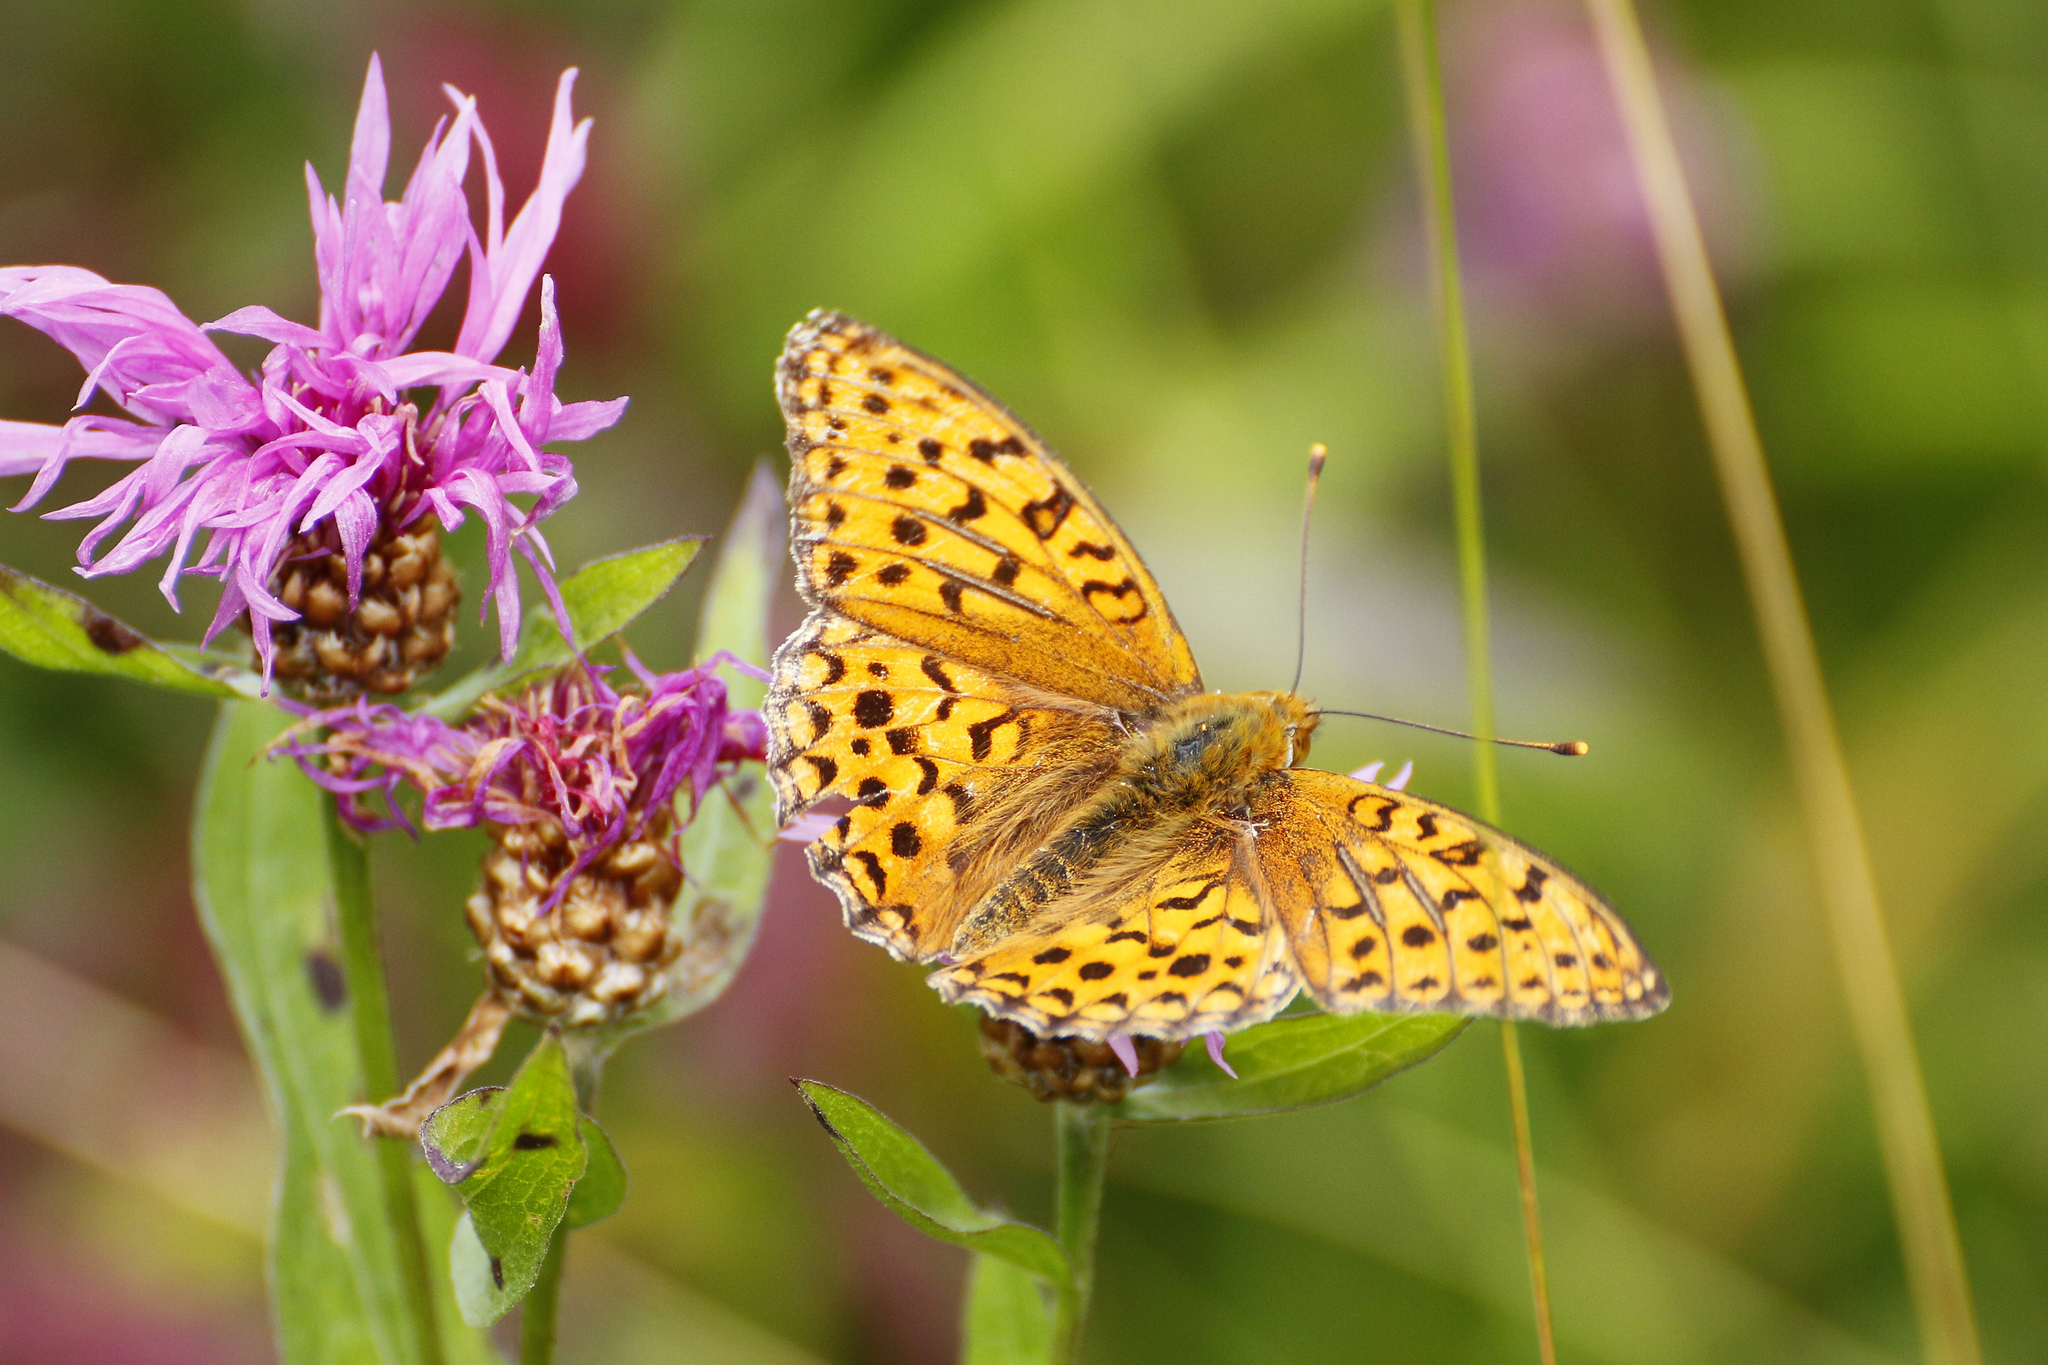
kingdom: Animalia
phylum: Arthropoda
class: Insecta
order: Lepidoptera
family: Nymphalidae
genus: Fabriciana
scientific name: Fabriciana adippe
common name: High brown fritillary
